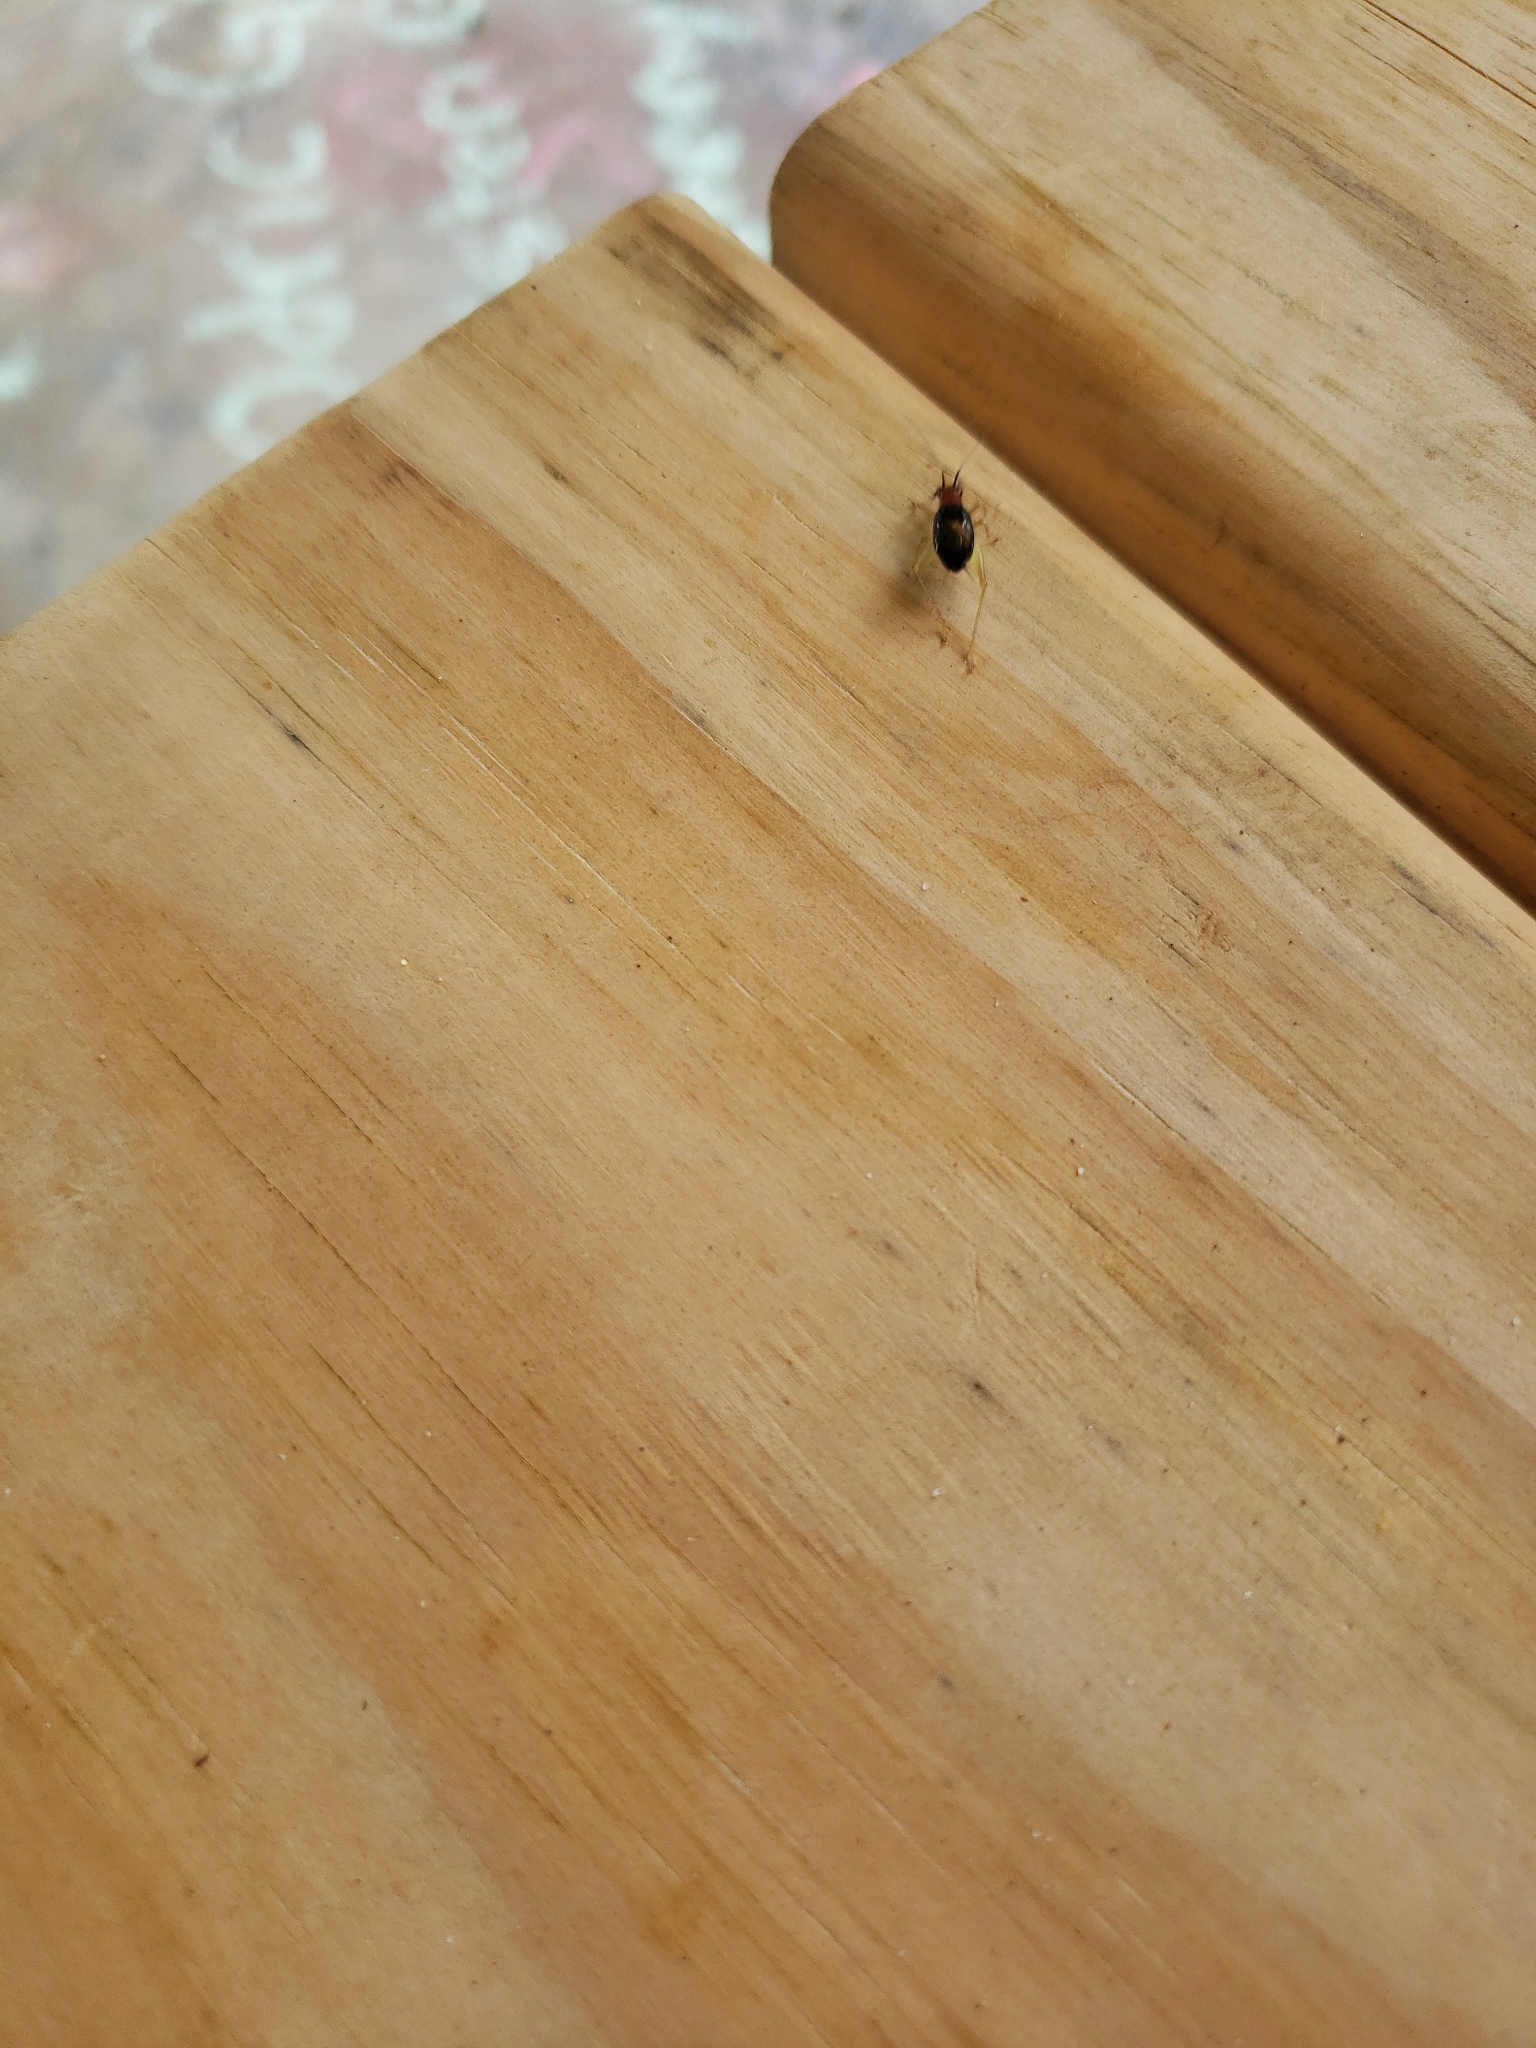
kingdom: Animalia
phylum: Arthropoda
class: Insecta
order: Orthoptera
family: Trigonidiidae
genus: Phyllopalpus
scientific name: Phyllopalpus pulchellus
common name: Handsome trig
